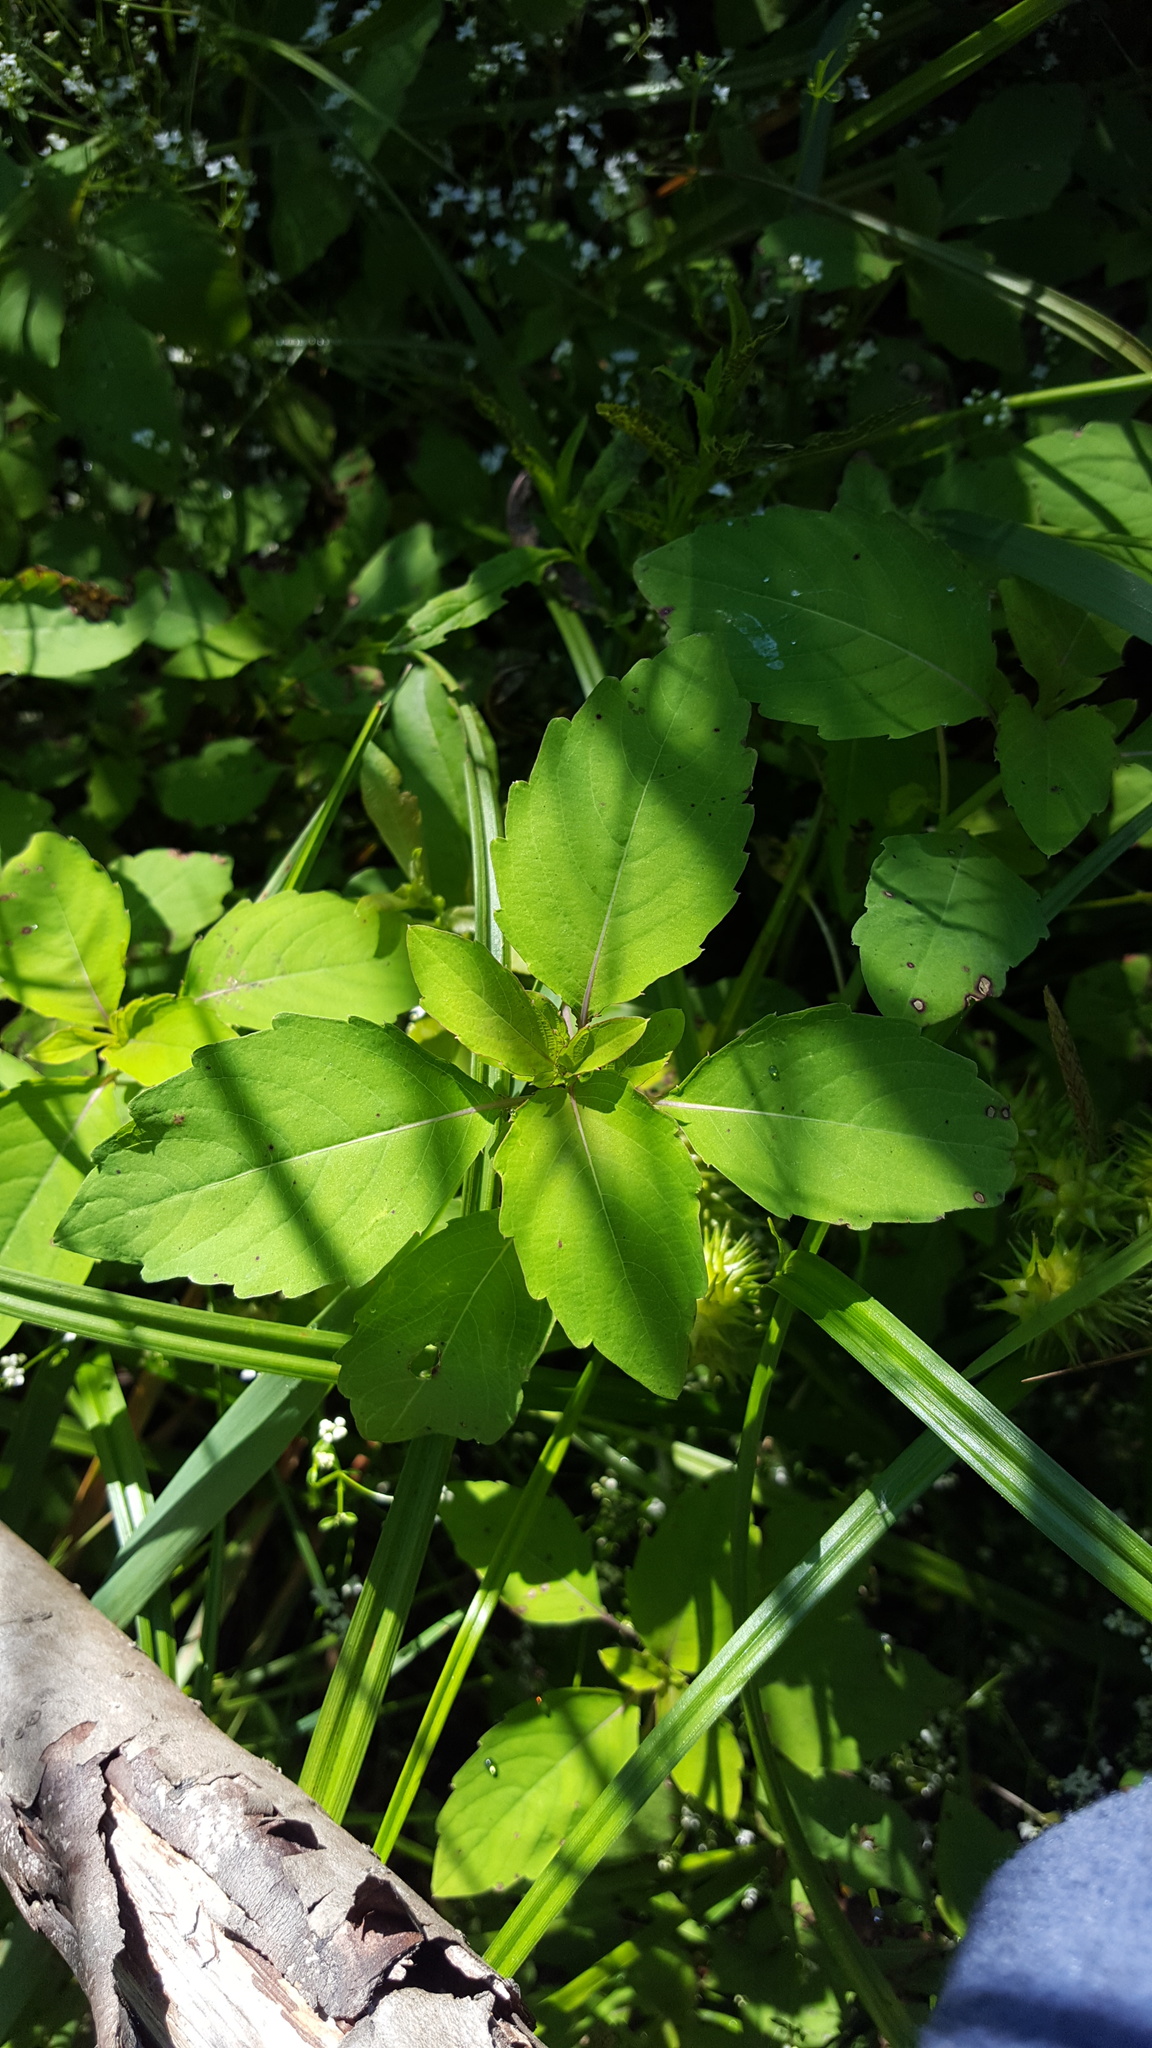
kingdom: Plantae
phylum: Tracheophyta
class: Magnoliopsida
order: Ericales
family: Balsaminaceae
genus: Impatiens
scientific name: Impatiens capensis
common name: Orange balsam
